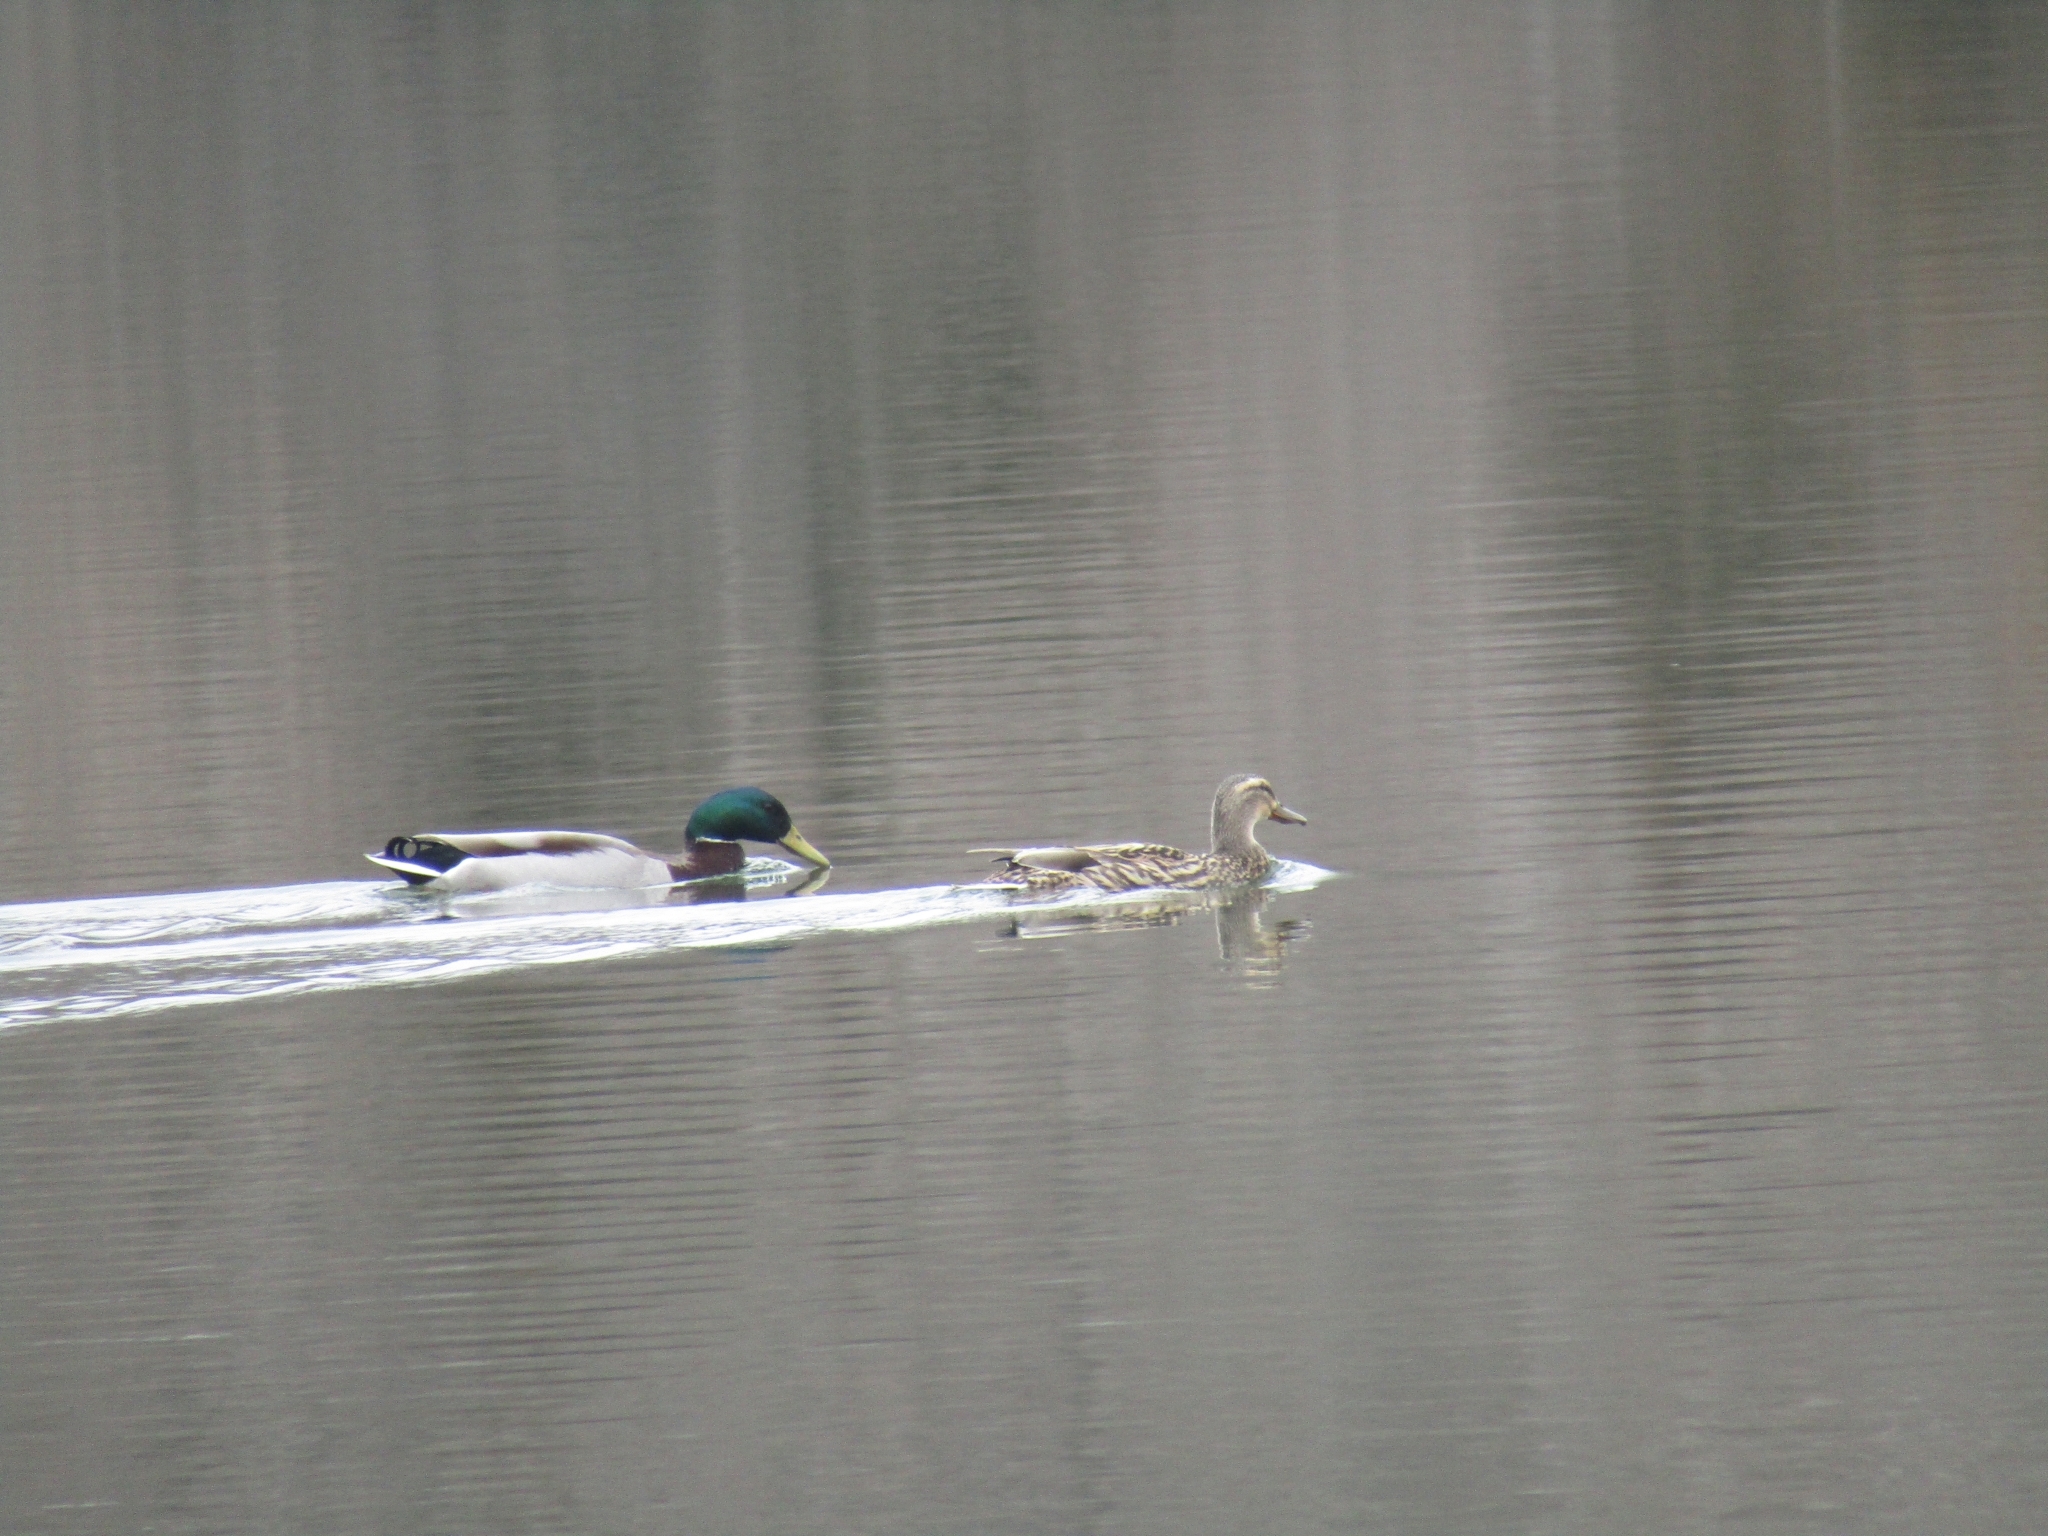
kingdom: Animalia
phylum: Chordata
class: Aves
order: Anseriformes
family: Anatidae
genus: Anas
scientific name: Anas platyrhynchos
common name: Mallard
